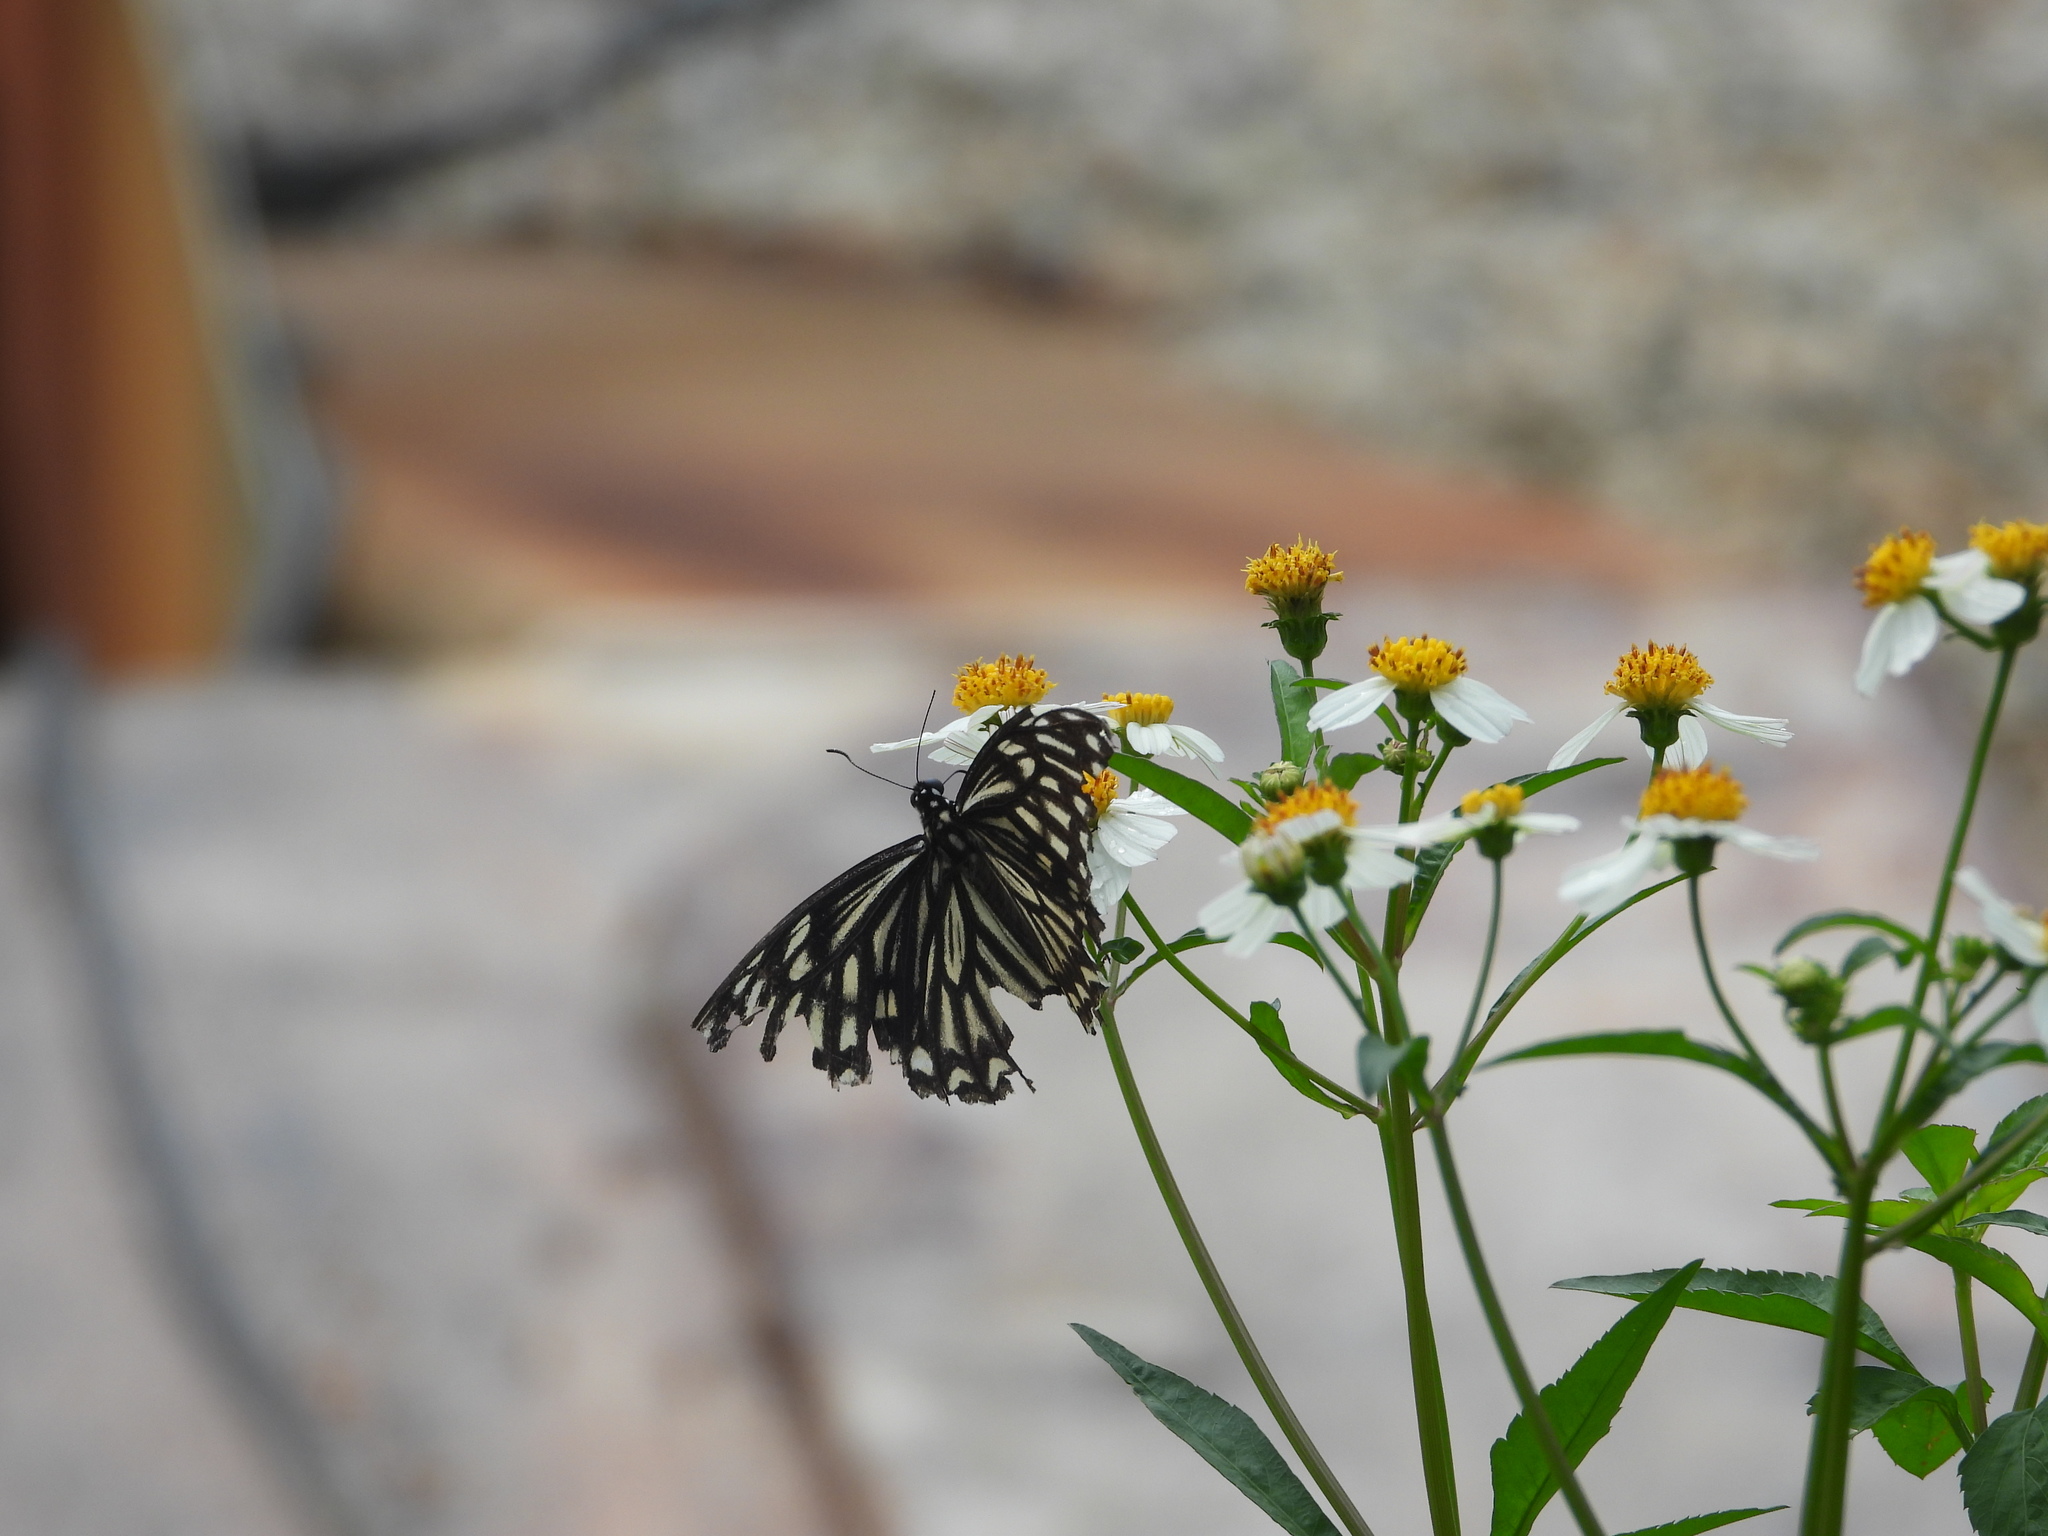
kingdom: Animalia
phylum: Arthropoda
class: Insecta
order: Lepidoptera
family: Papilionidae
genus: Chilasa
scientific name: Chilasa clytia
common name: Common mime
